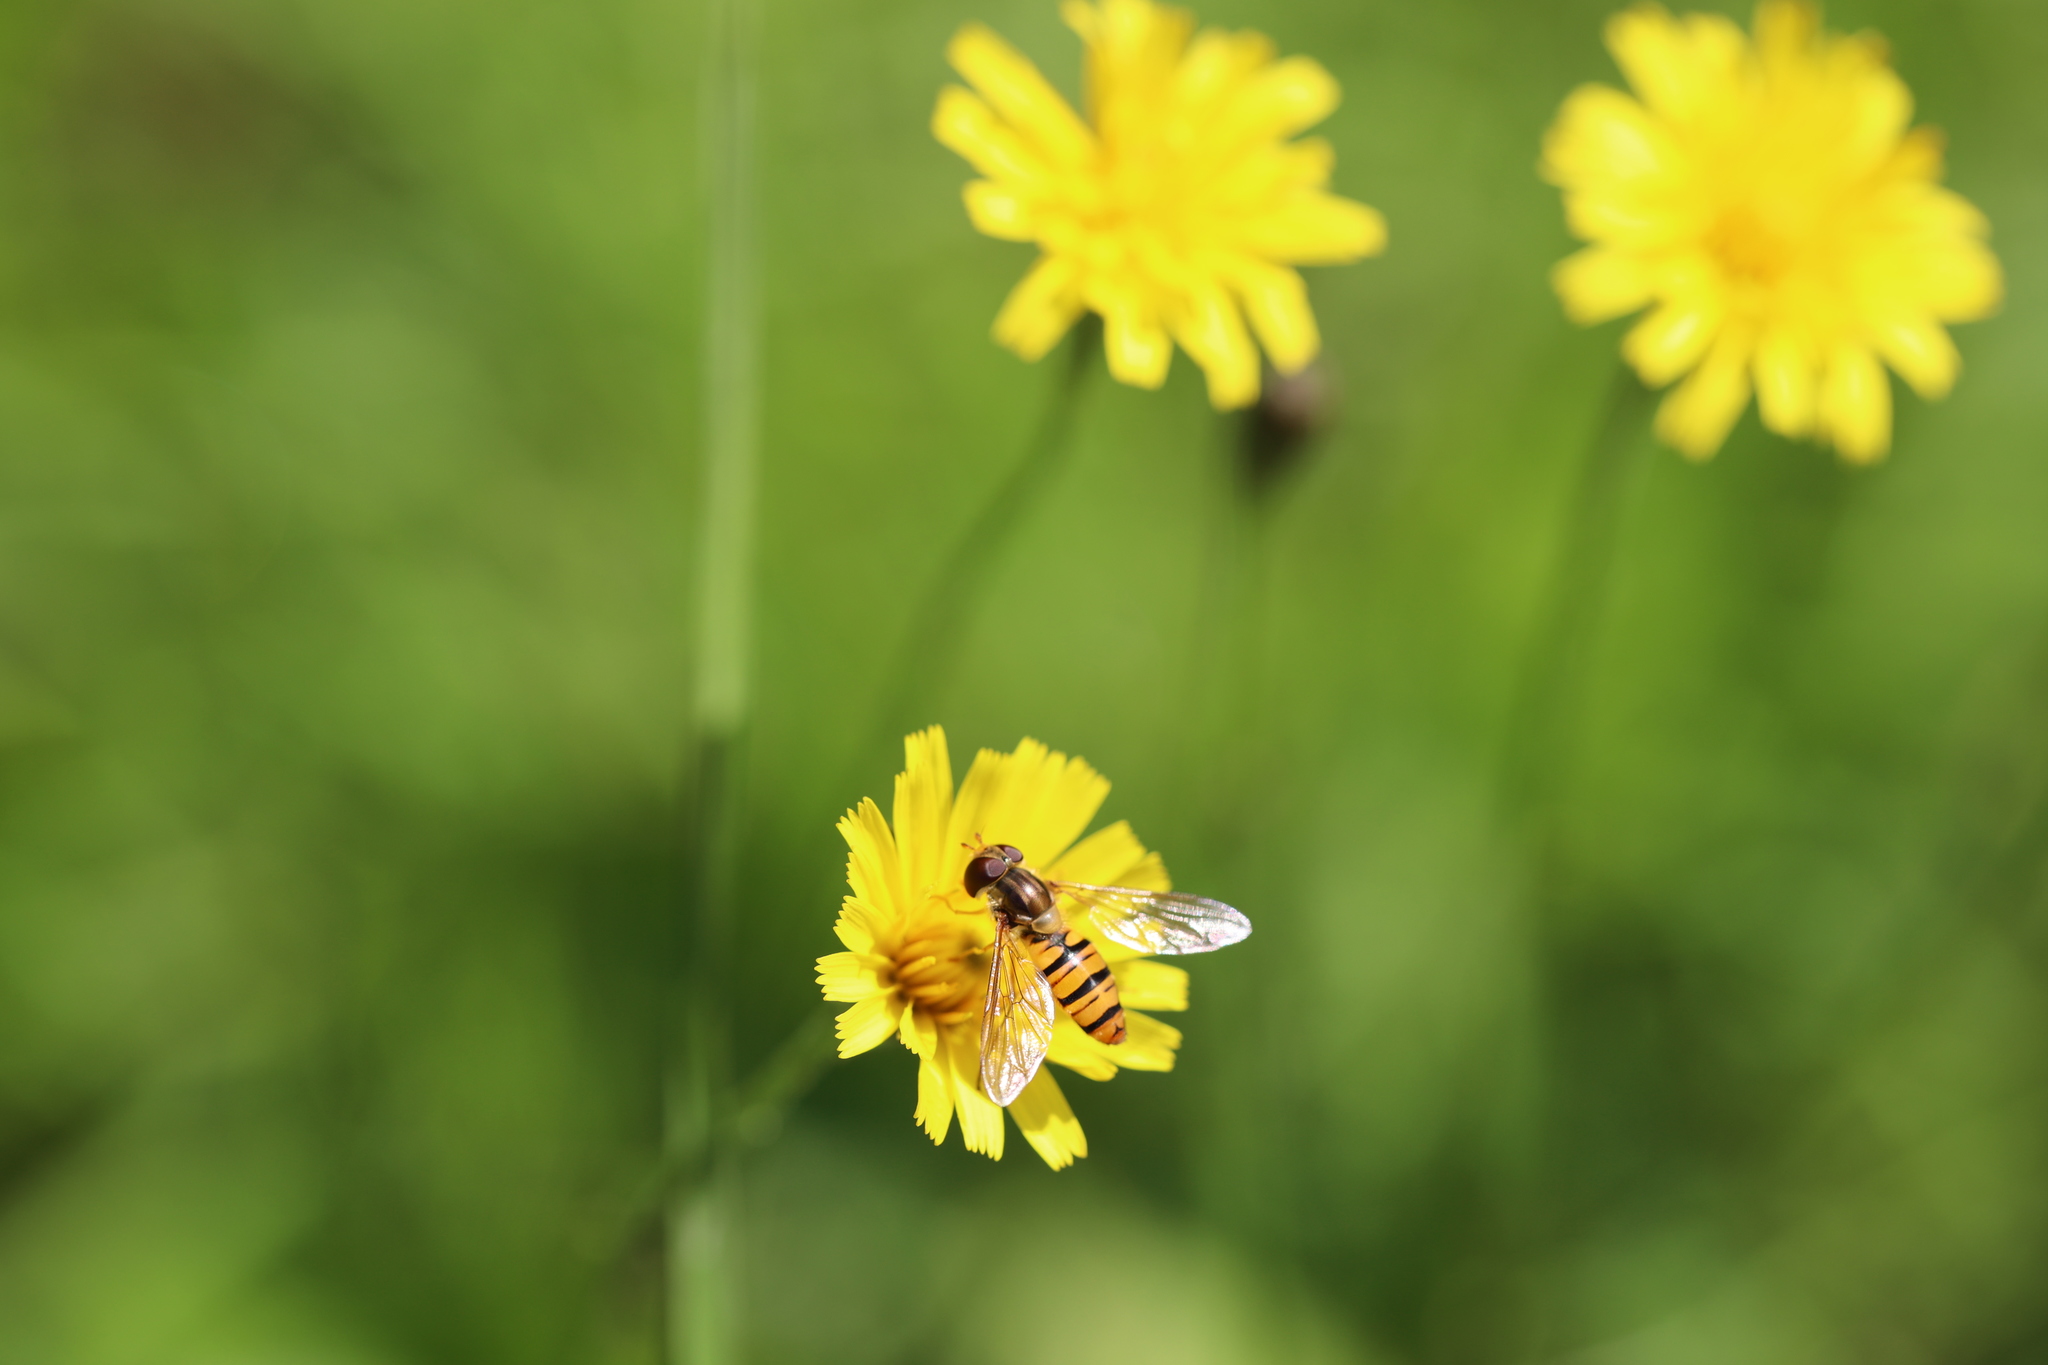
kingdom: Animalia
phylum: Arthropoda
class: Insecta
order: Diptera
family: Syrphidae
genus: Episyrphus
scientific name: Episyrphus balteatus
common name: Marmalade hoverfly
